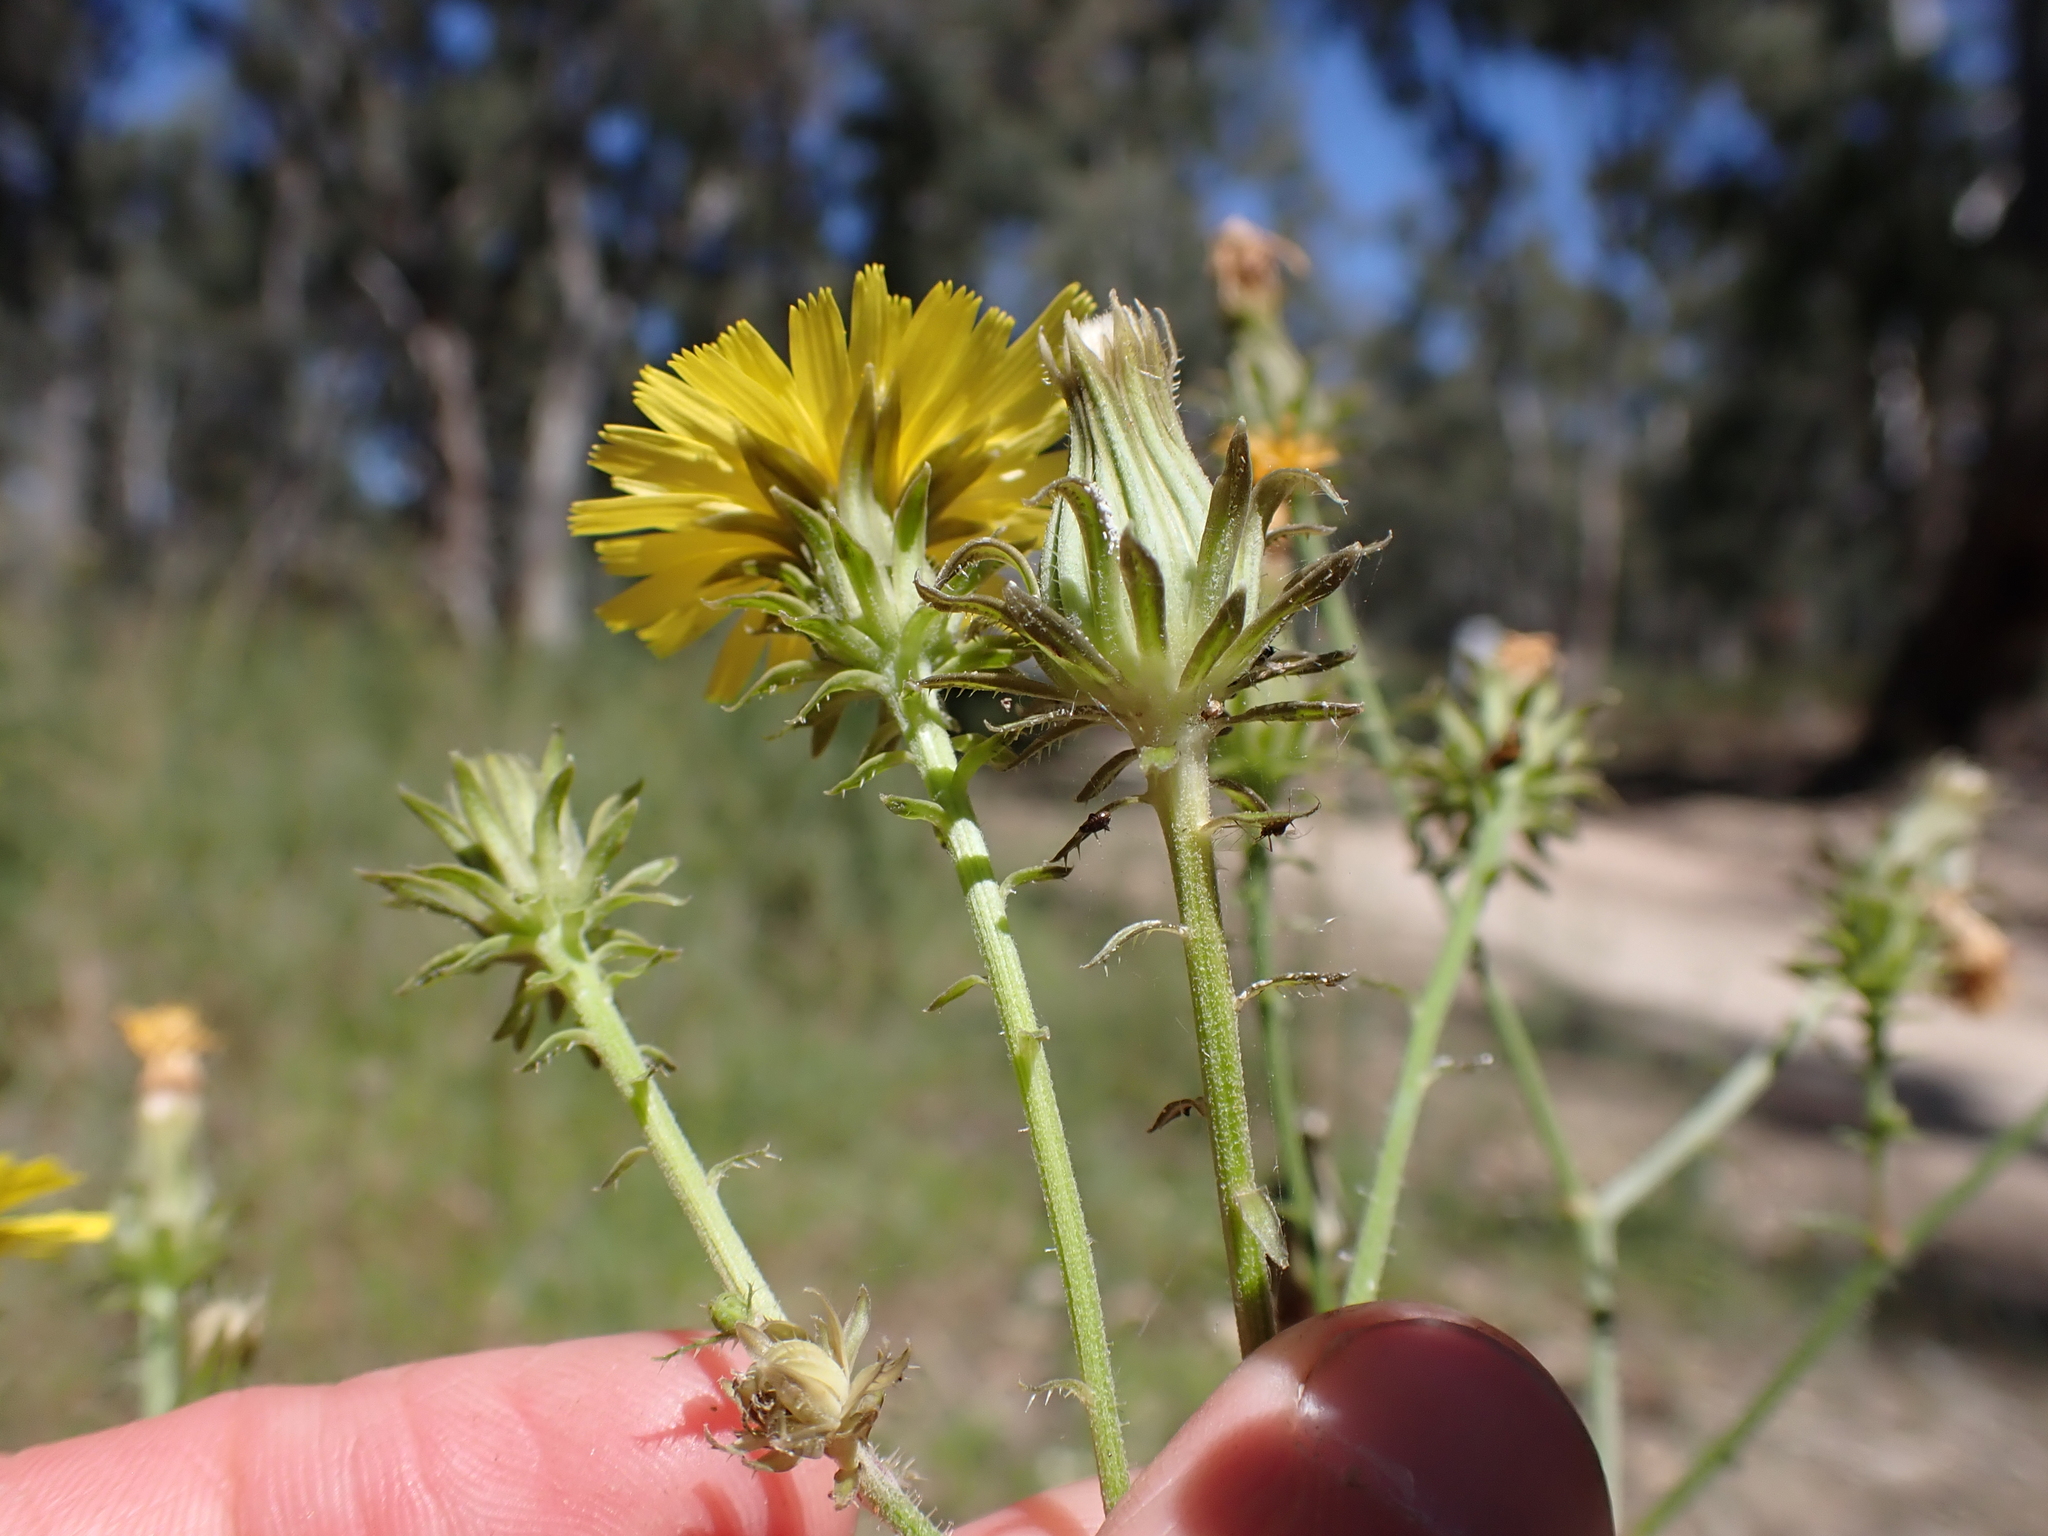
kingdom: Plantae
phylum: Tracheophyta
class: Magnoliopsida
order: Asterales
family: Asteraceae
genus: Picris
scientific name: Picris squarrosa
